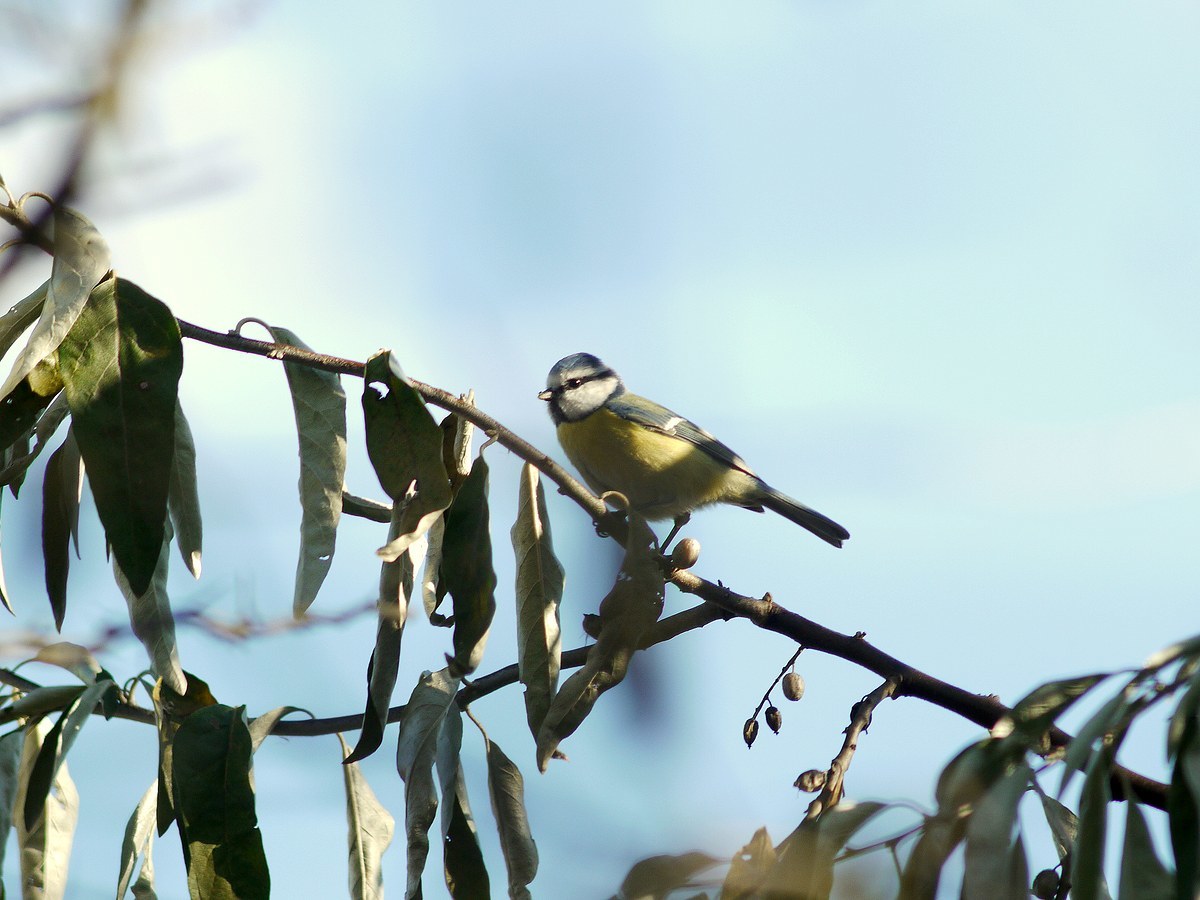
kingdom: Animalia
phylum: Chordata
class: Aves
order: Passeriformes
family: Paridae
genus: Cyanistes
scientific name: Cyanistes caeruleus
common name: Eurasian blue tit
